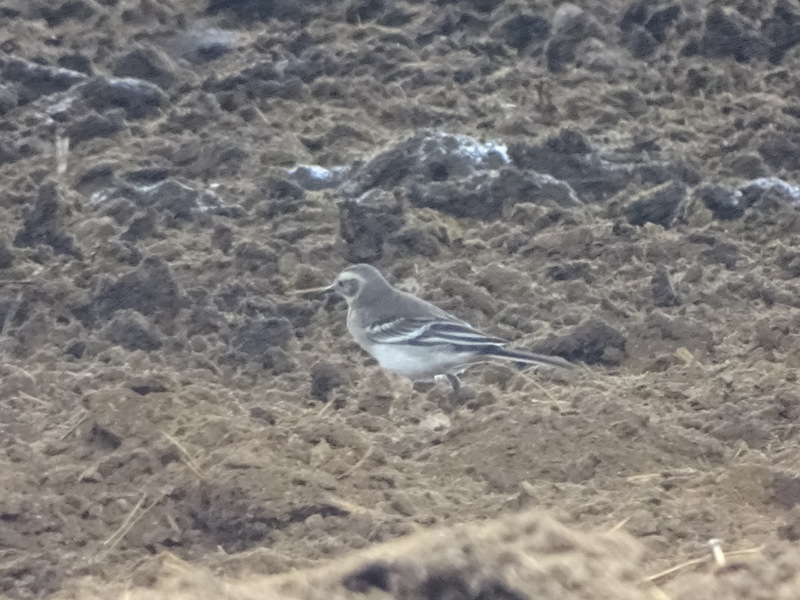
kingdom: Animalia
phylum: Chordata
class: Aves
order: Passeriformes
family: Motacillidae
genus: Motacilla
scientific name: Motacilla citreola
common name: Citrine wagtail
